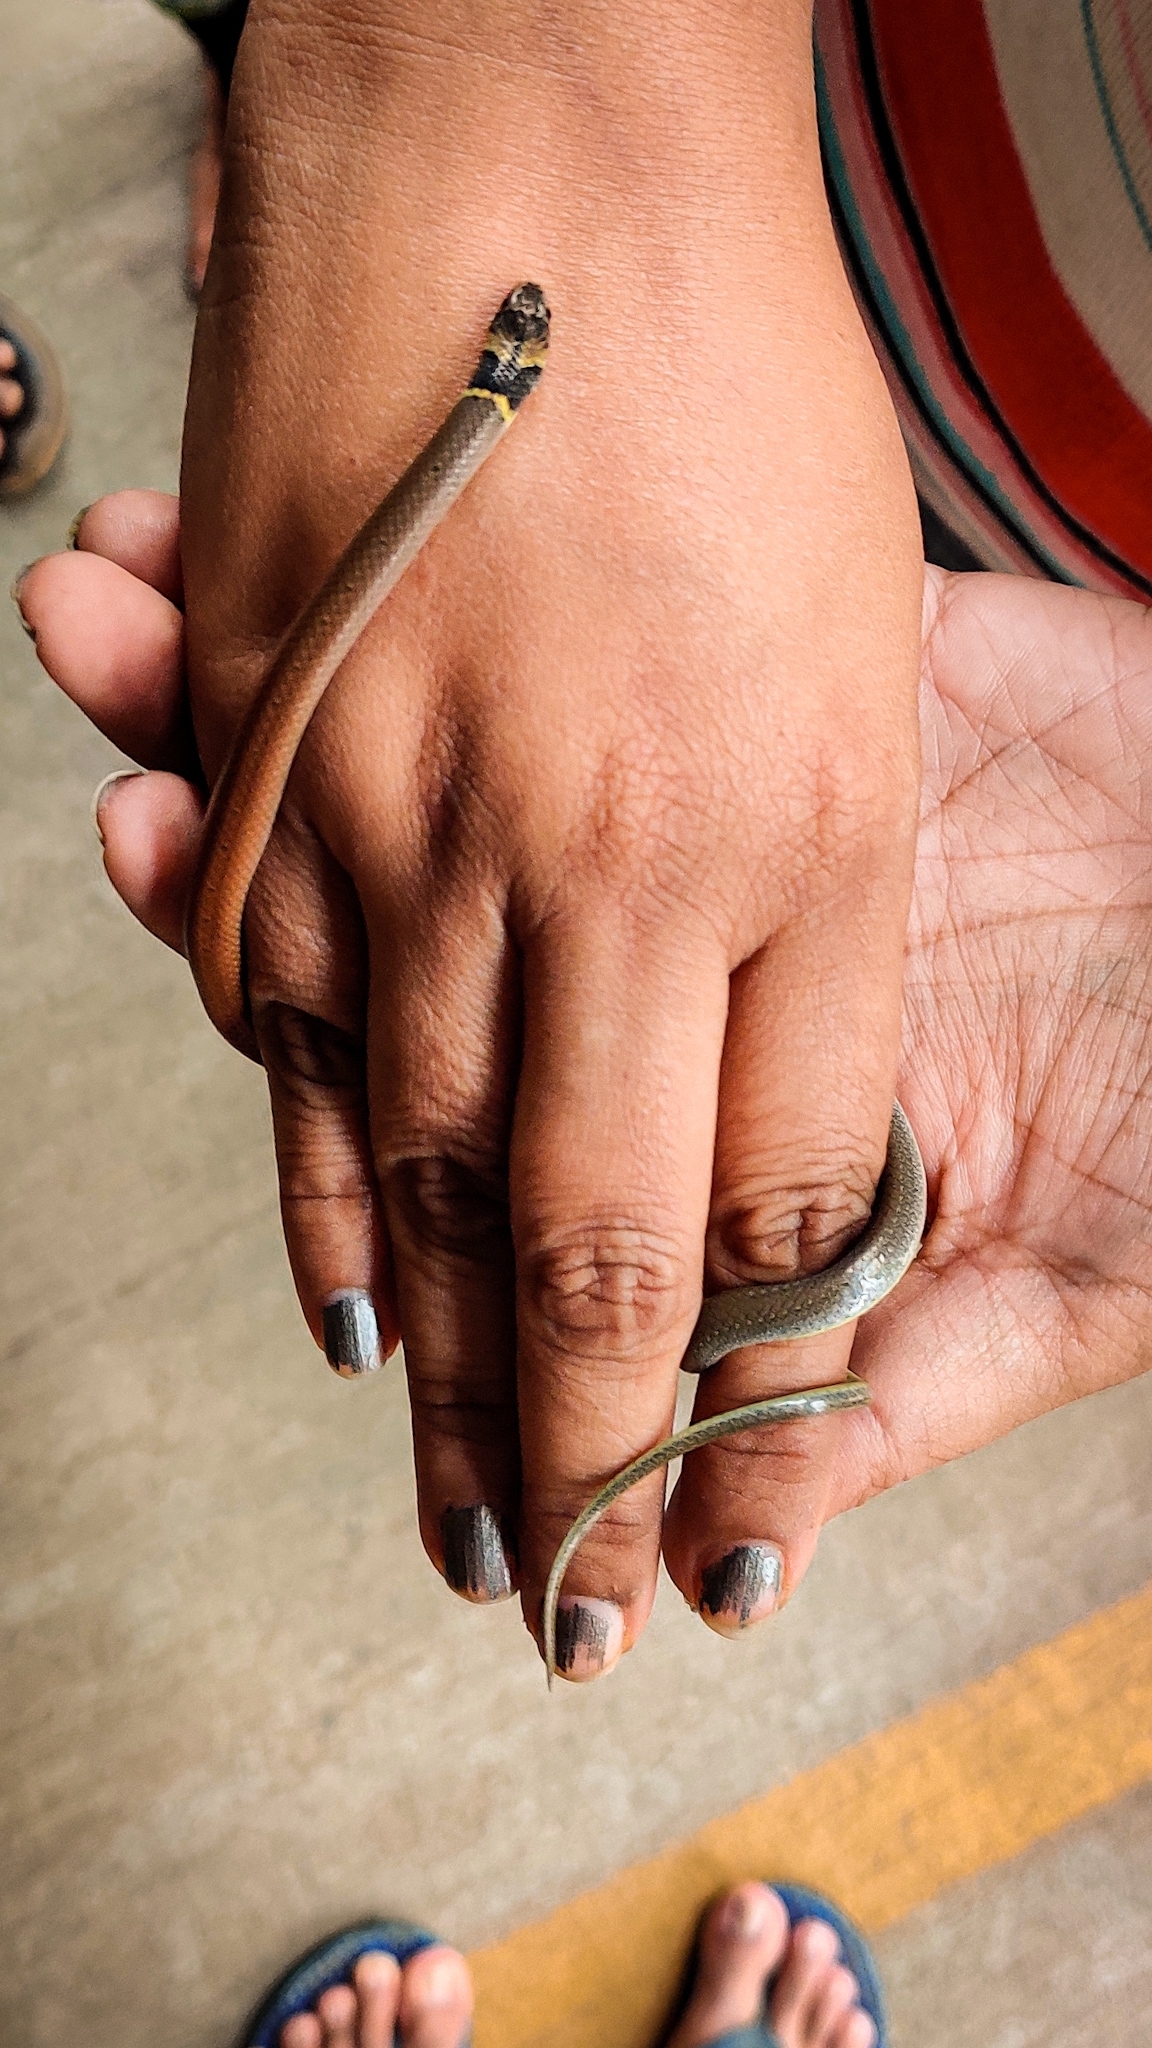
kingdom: Animalia
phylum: Chordata
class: Squamata
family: Colubridae
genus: Sibynophis
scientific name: Sibynophis subpunctatus
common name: Black-headed snake
